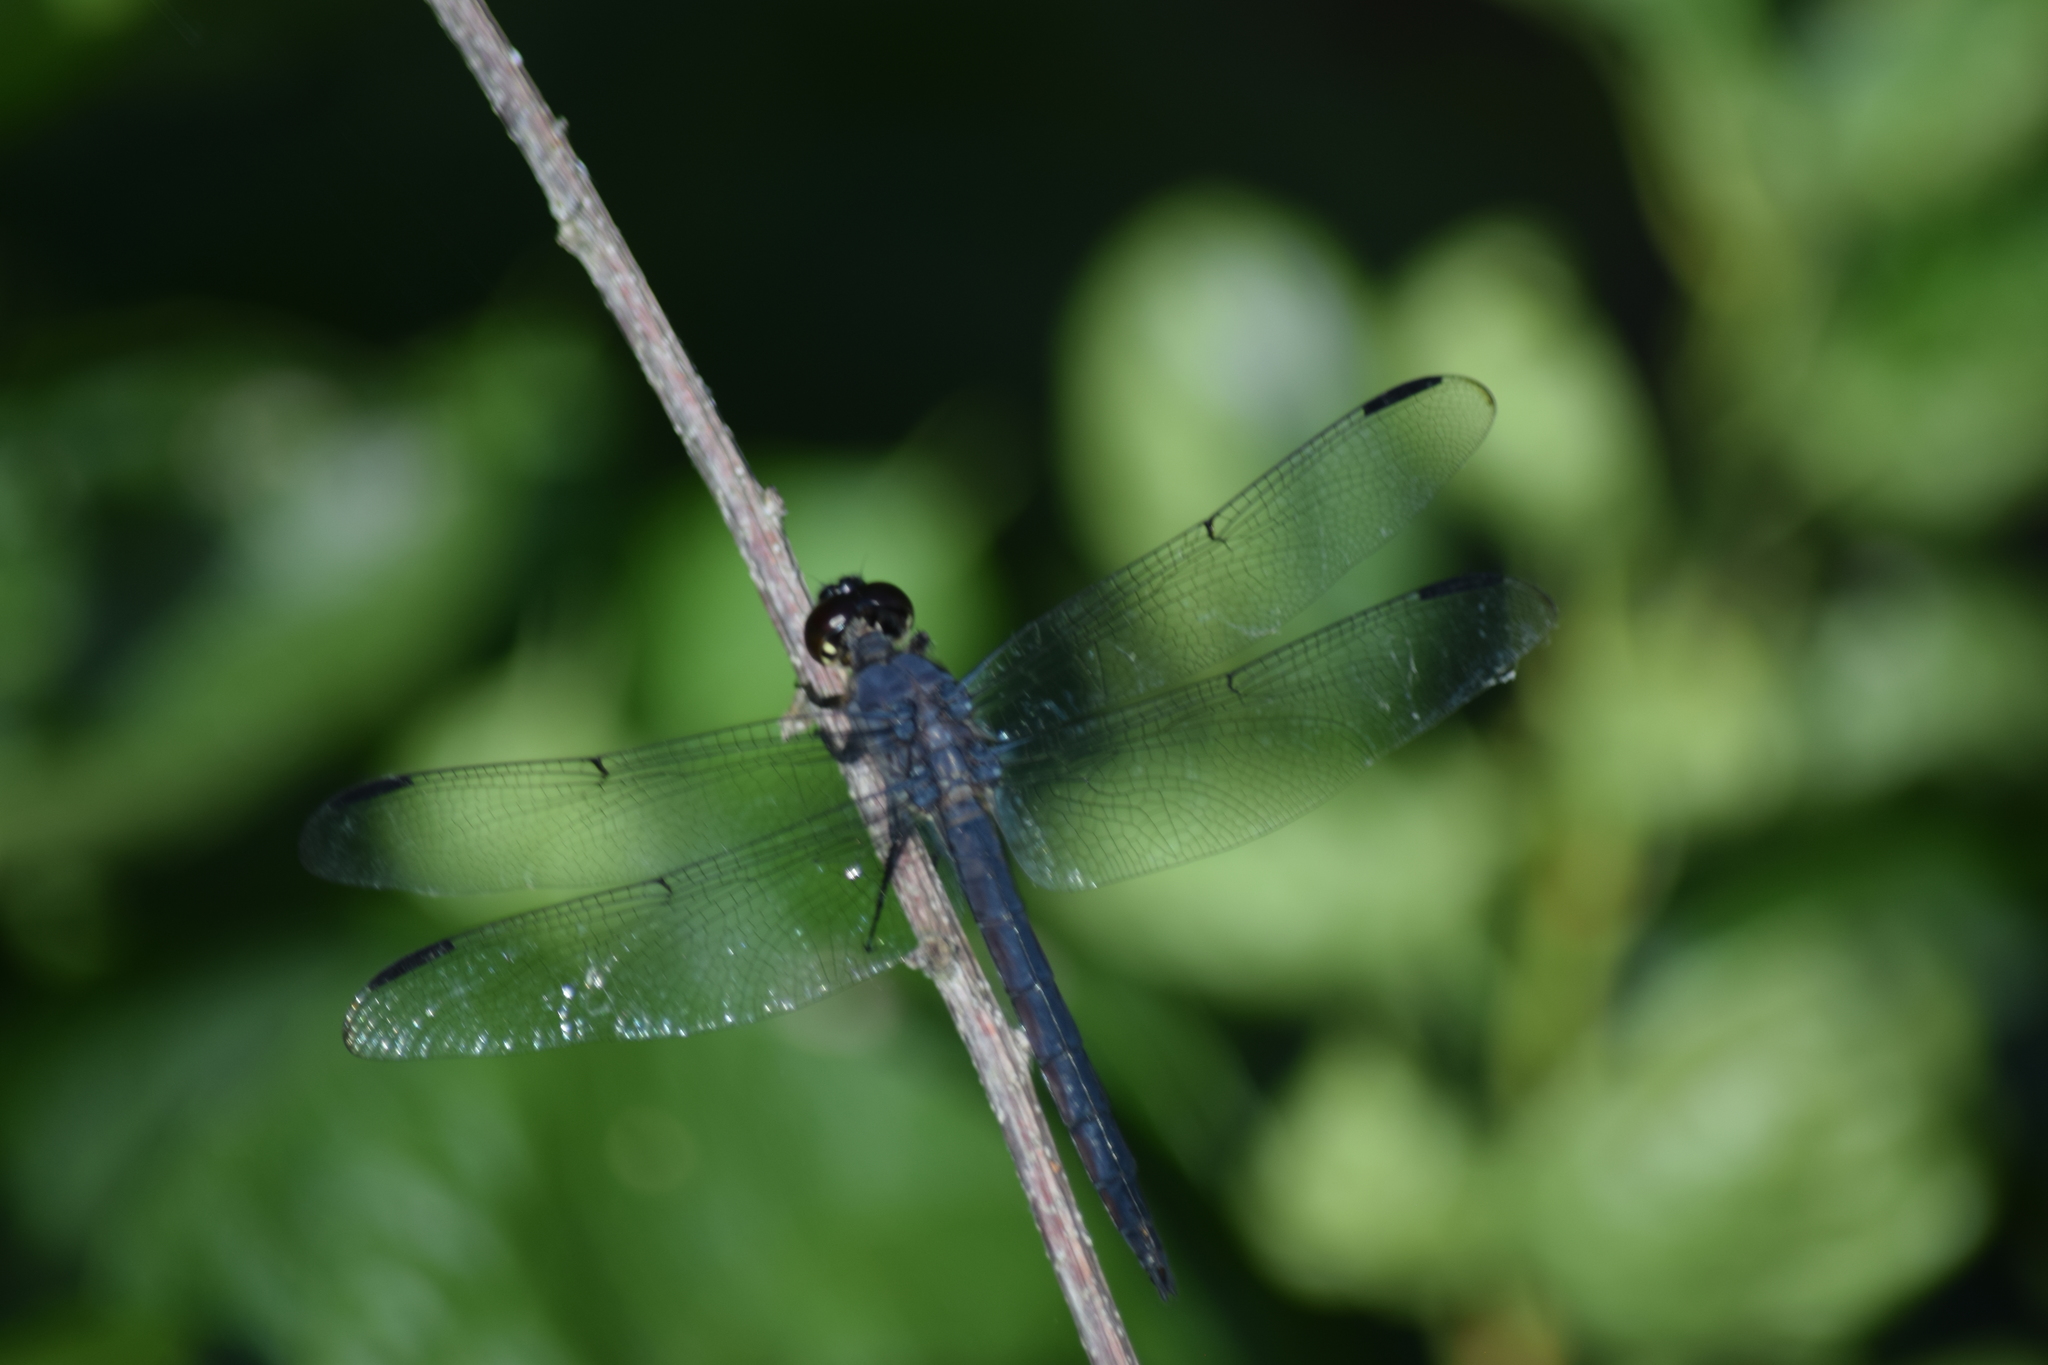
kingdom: Animalia
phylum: Arthropoda
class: Insecta
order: Odonata
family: Libellulidae
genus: Libellula
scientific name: Libellula incesta
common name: Slaty skimmer
